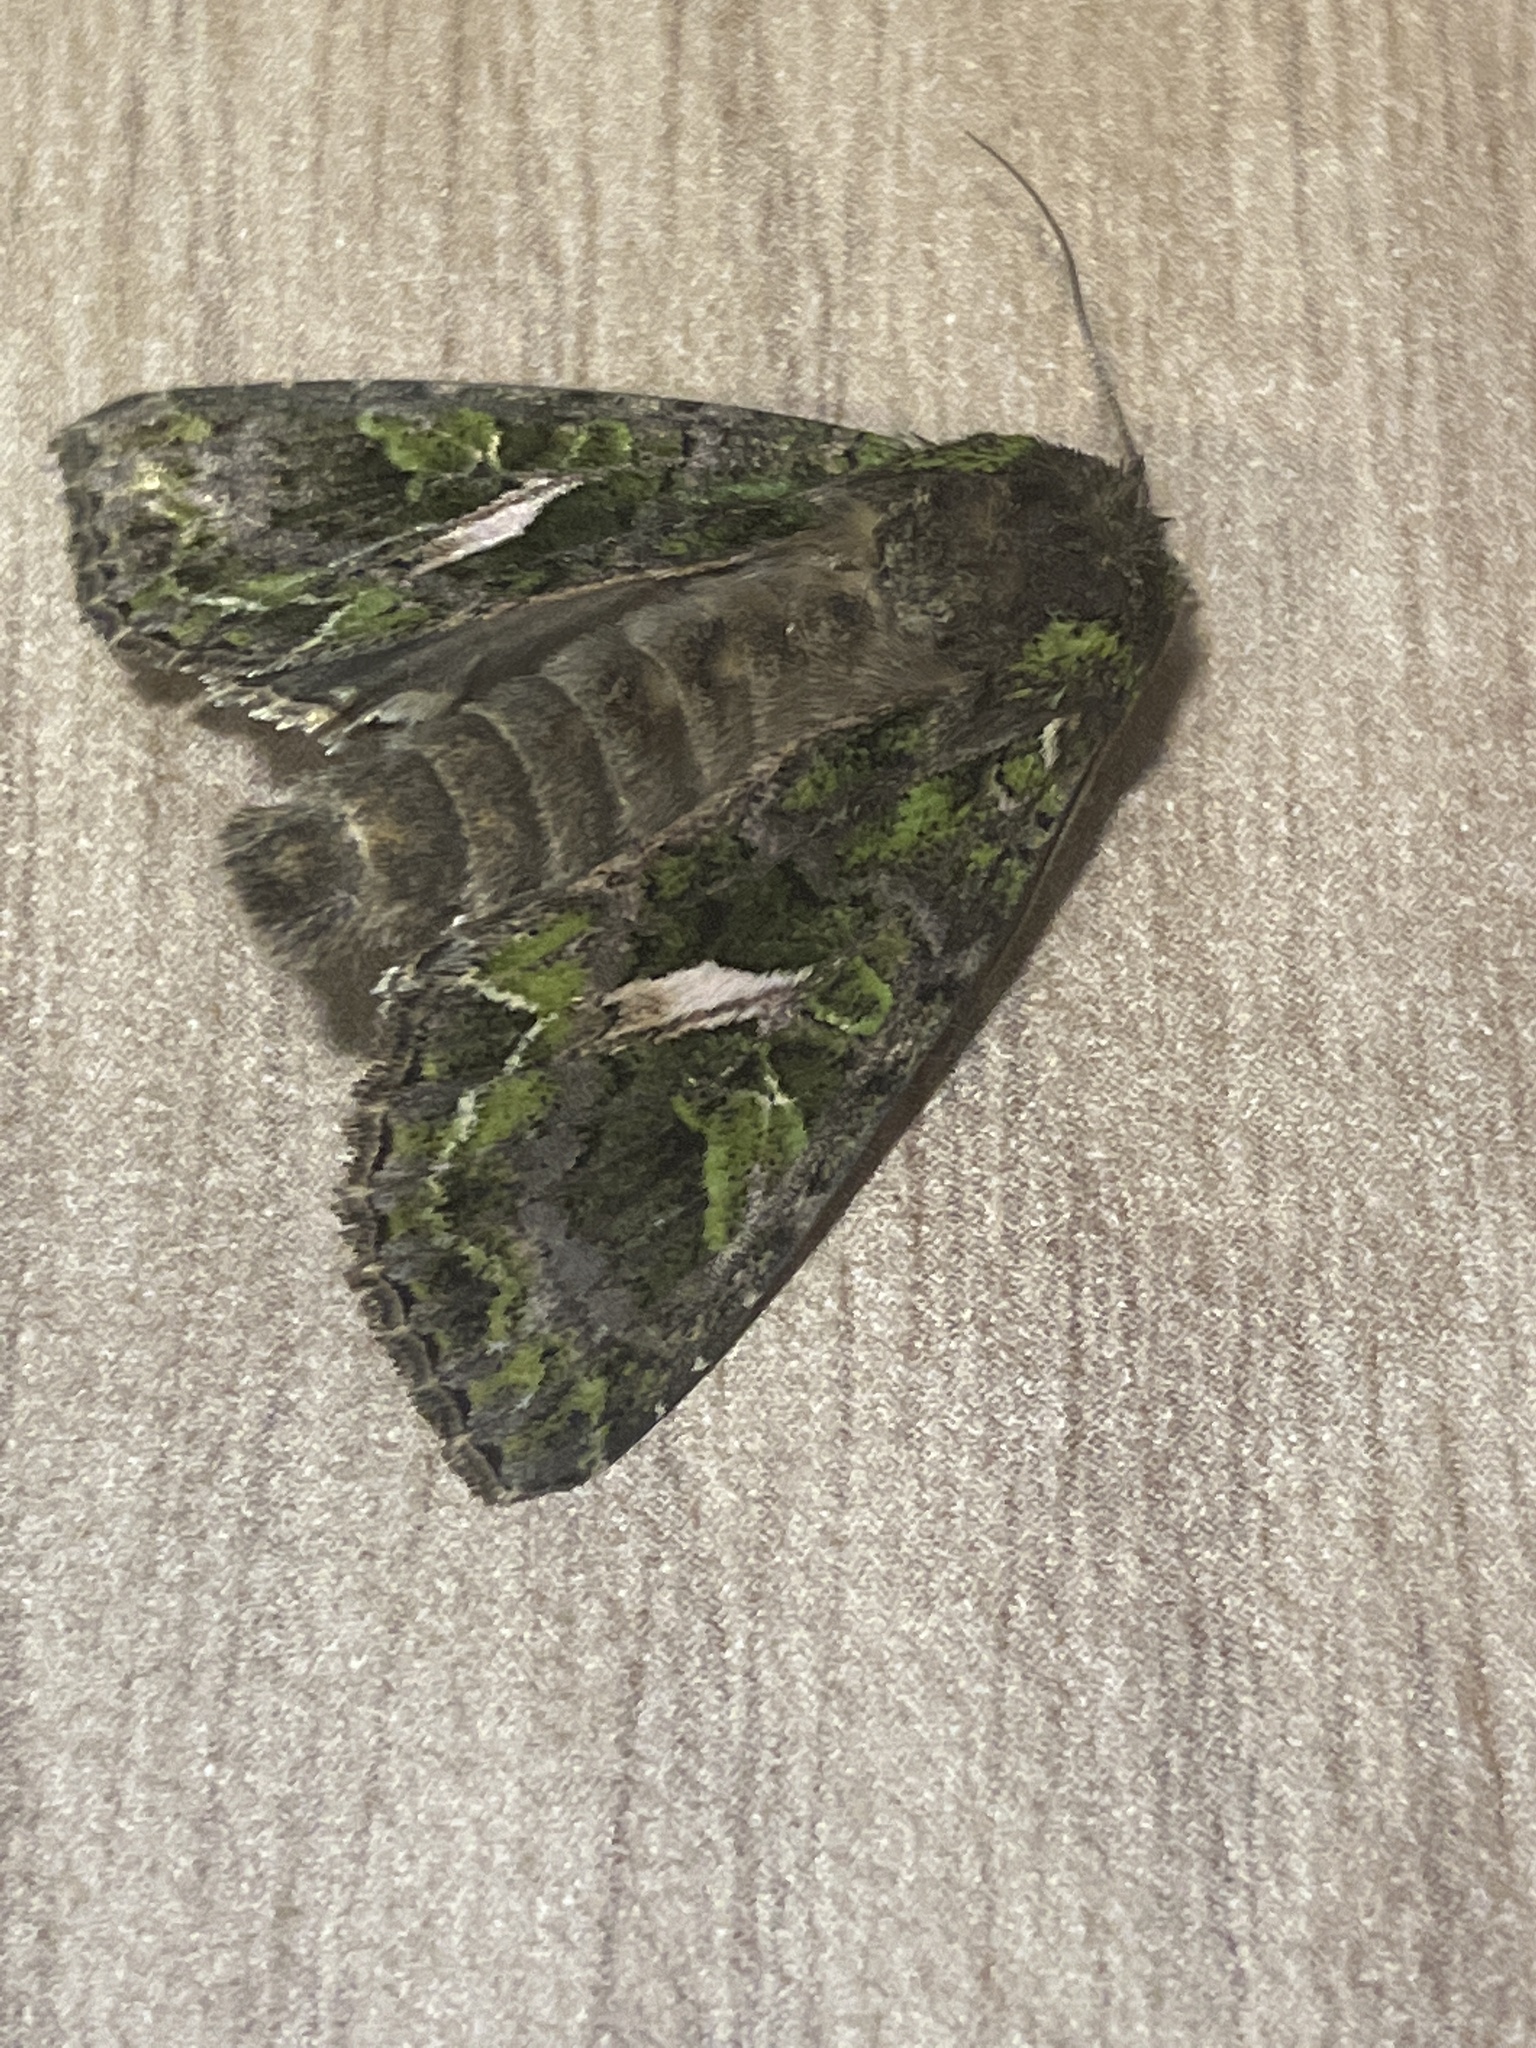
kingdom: Animalia
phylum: Arthropoda
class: Insecta
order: Lepidoptera
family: Noctuidae
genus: Trachea
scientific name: Trachea atriplicis
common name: Orache moth
